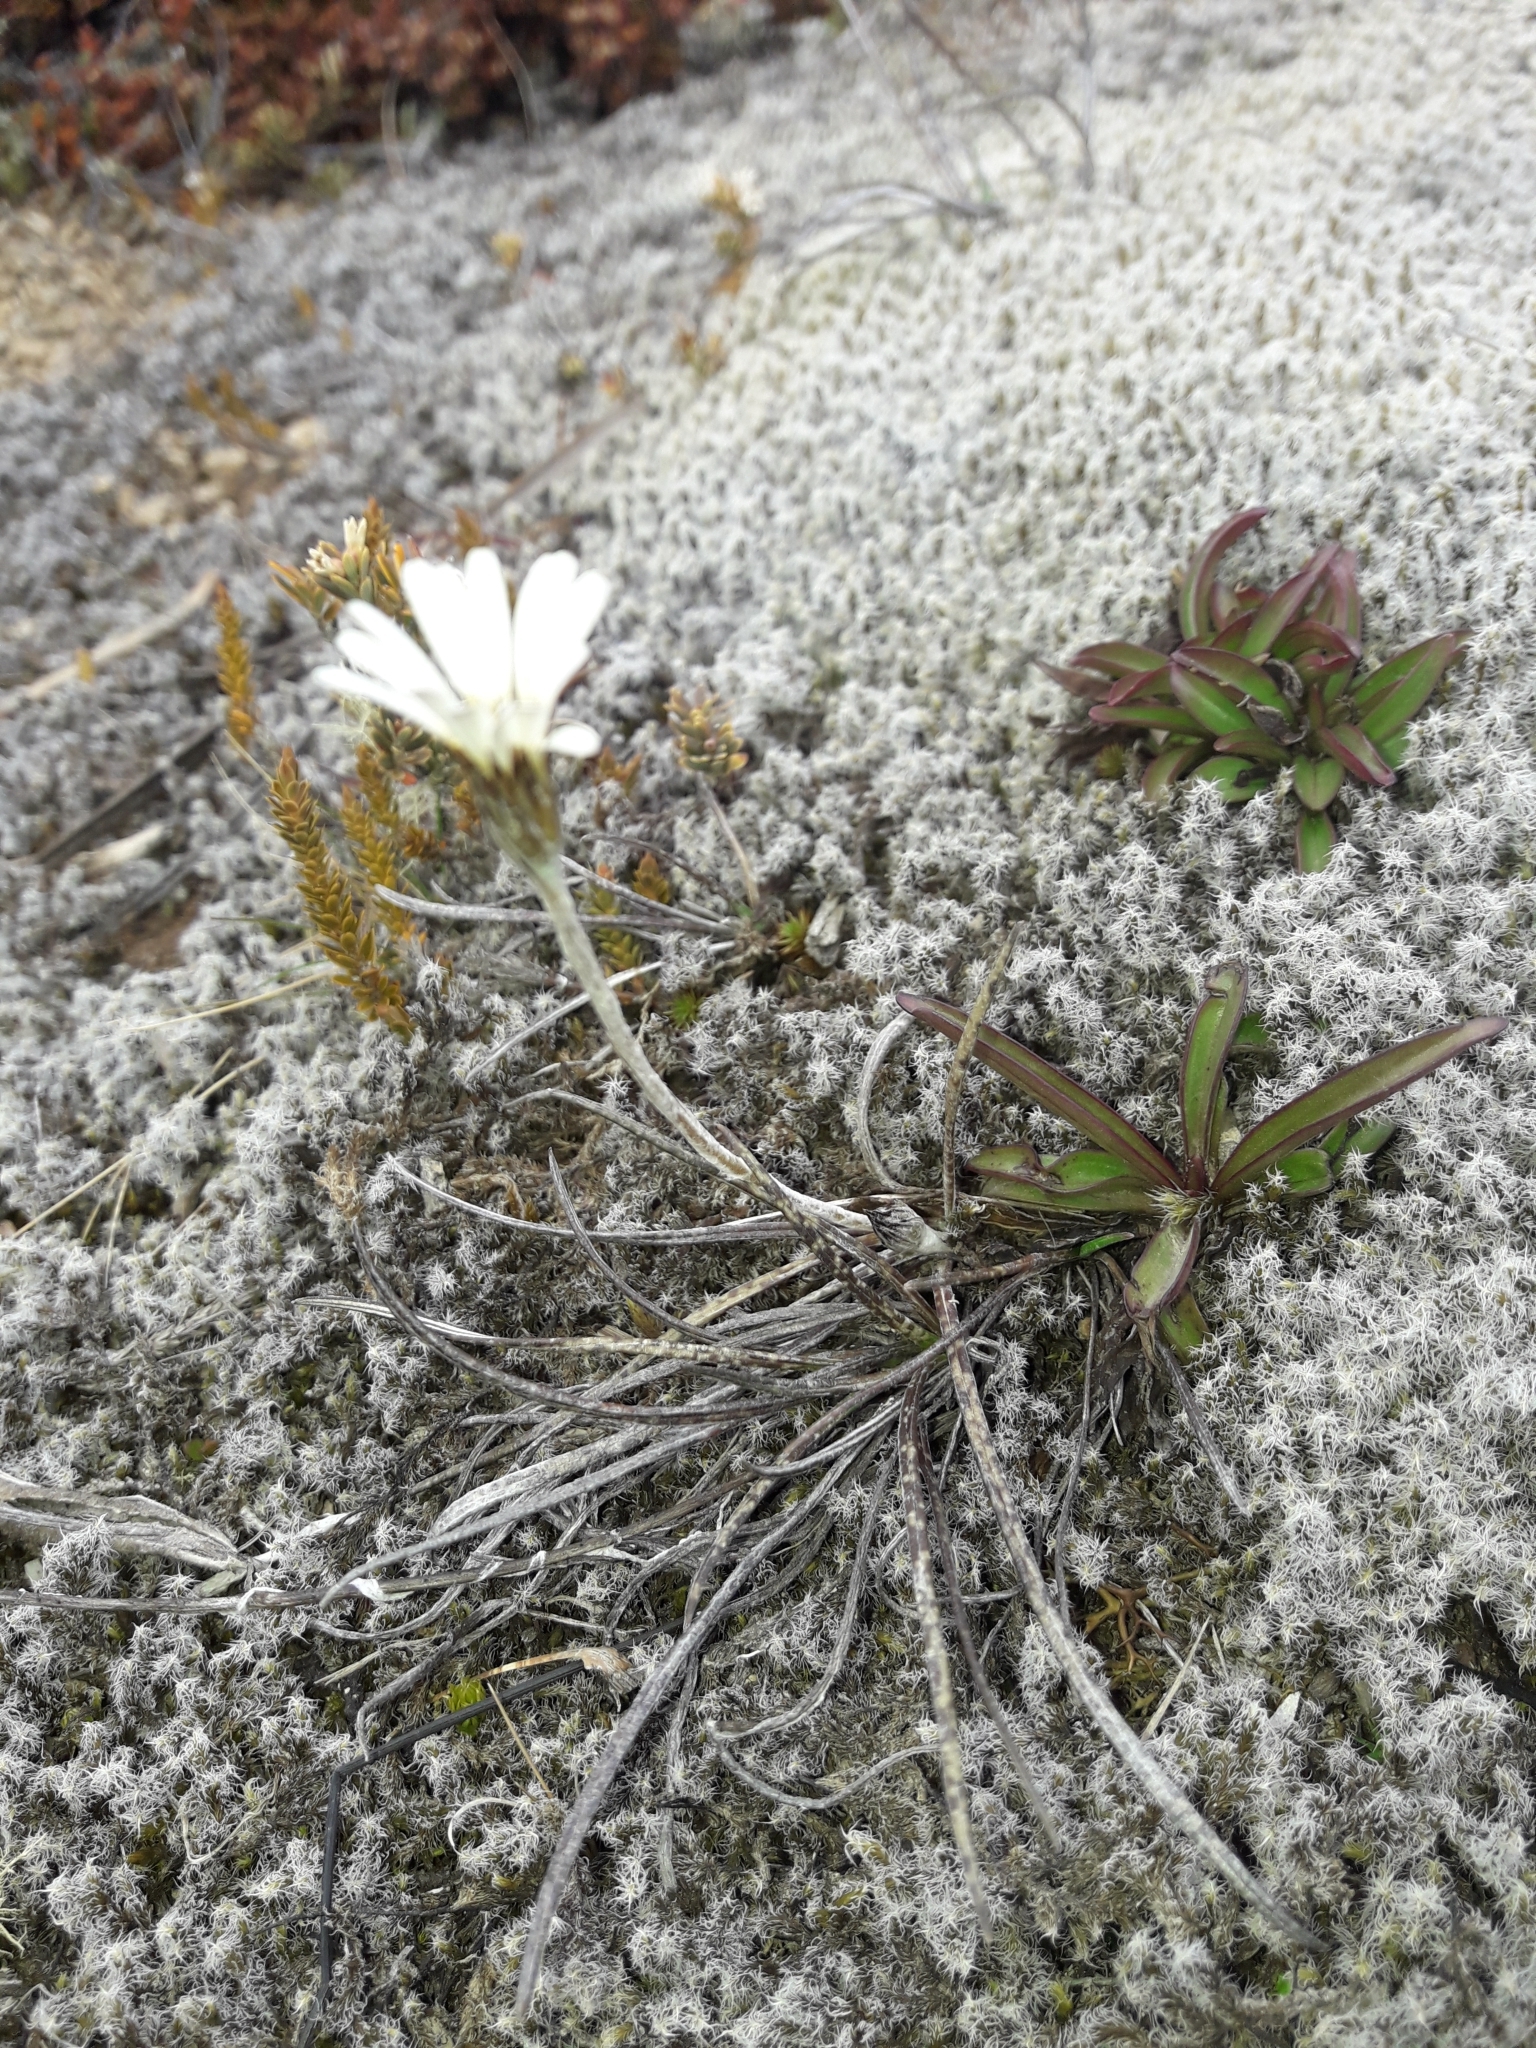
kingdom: Plantae
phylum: Tracheophyta
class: Magnoliopsida
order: Asterales
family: Asteraceae
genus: Celmisia
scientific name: Celmisia gracilenta
